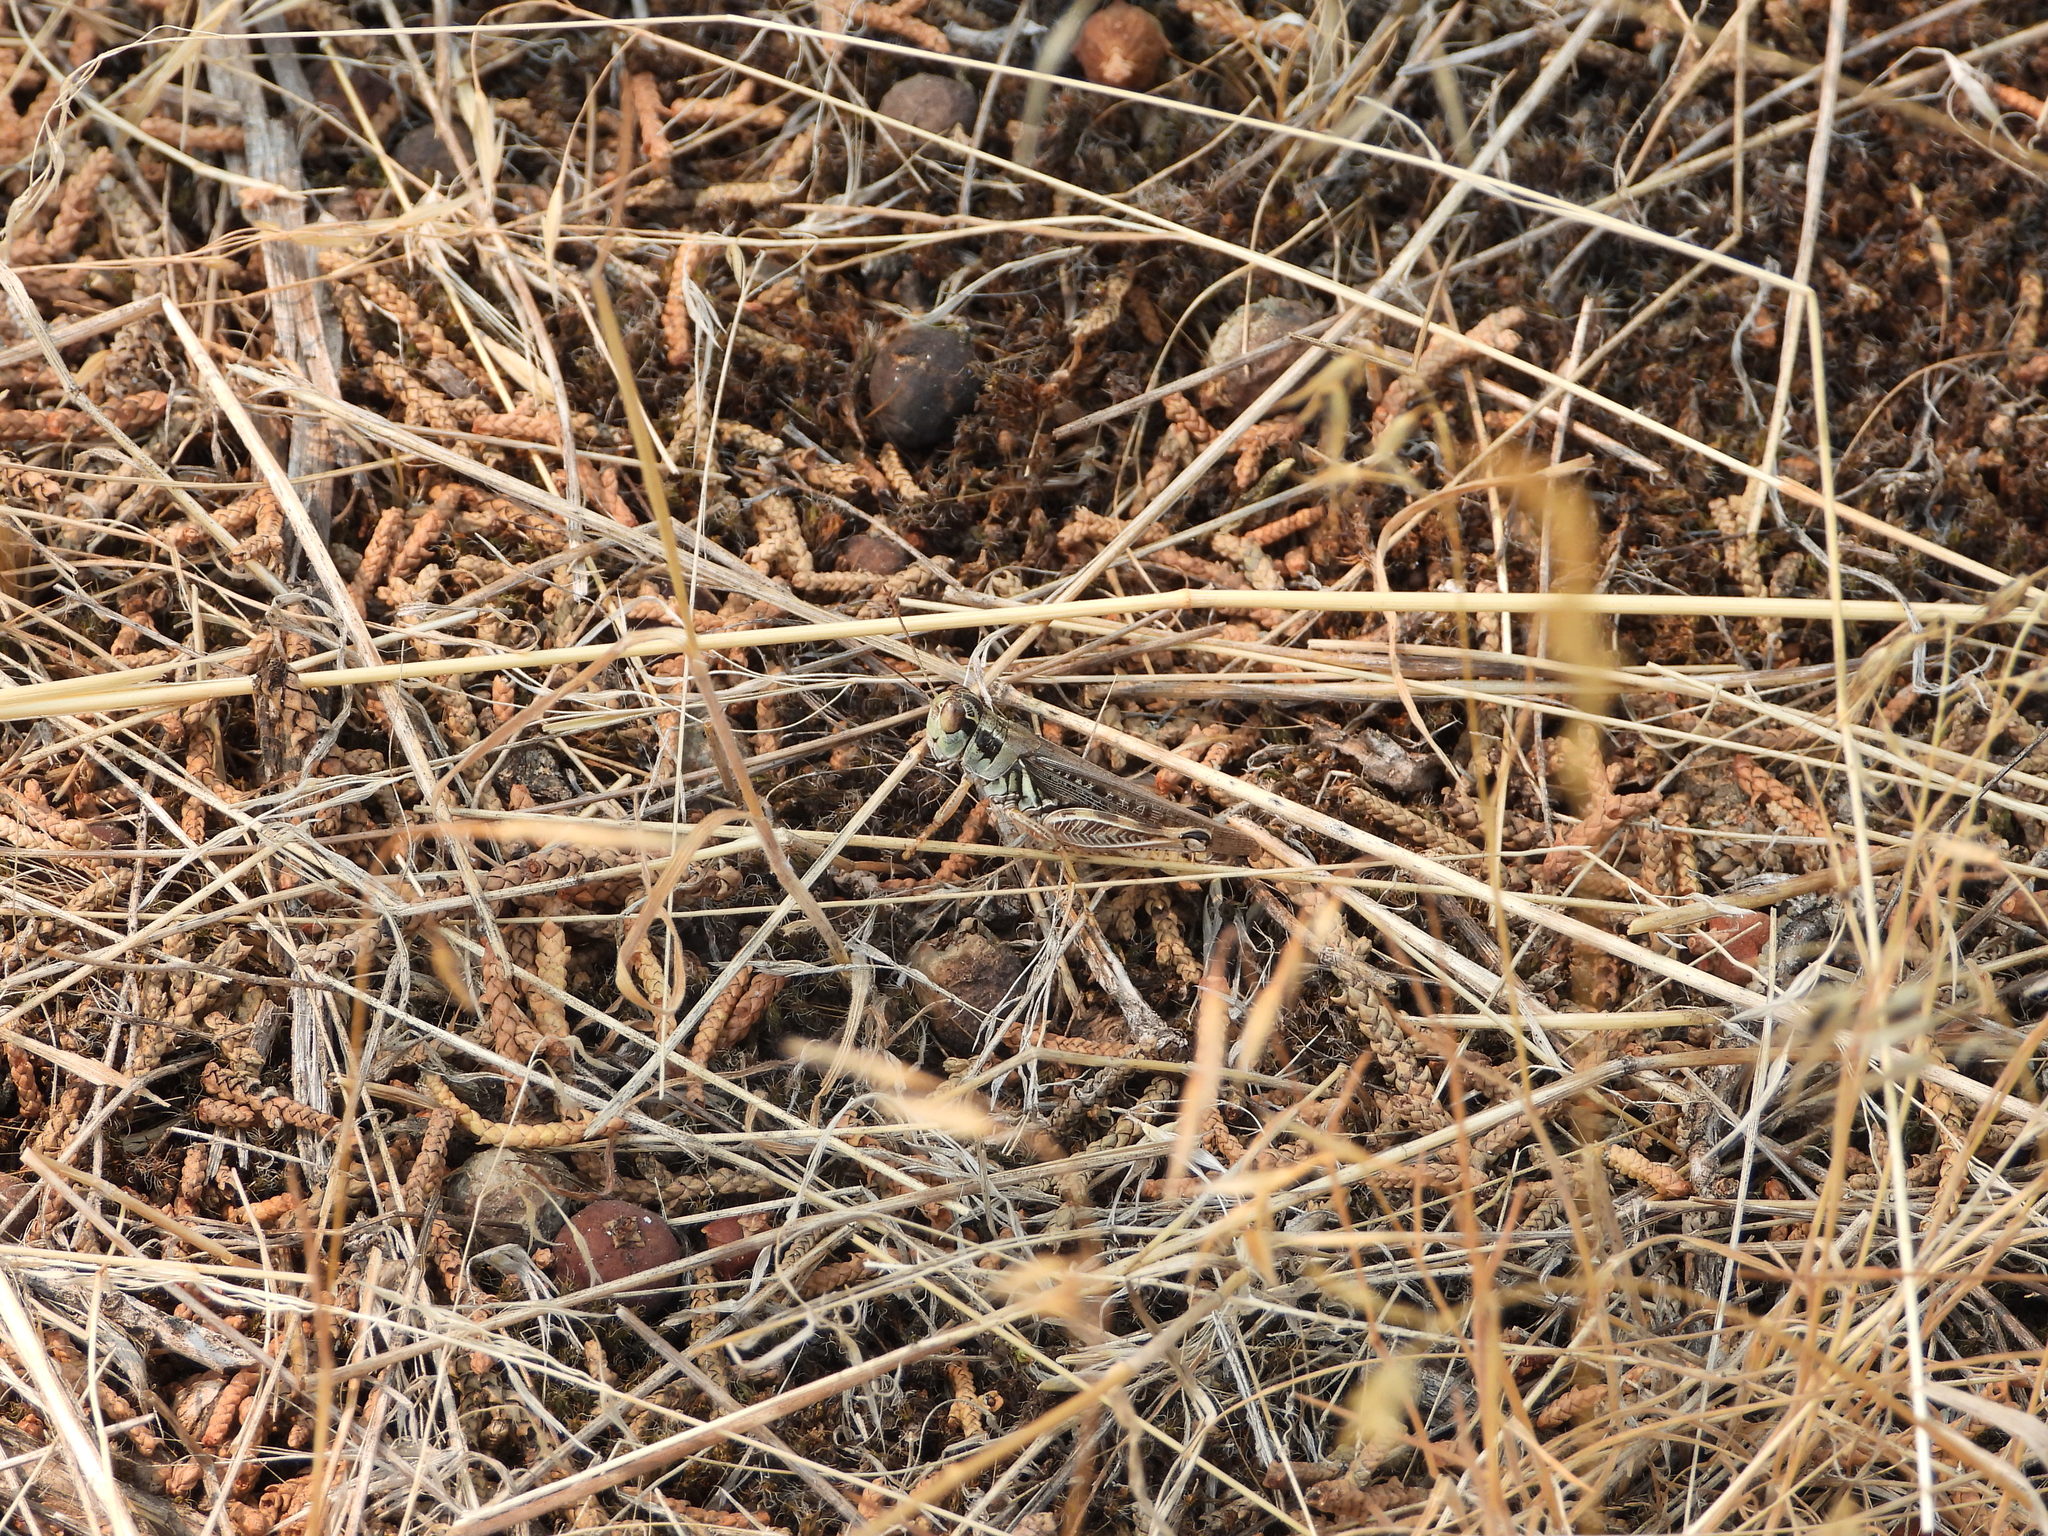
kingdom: Animalia
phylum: Arthropoda
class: Insecta
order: Orthoptera
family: Acrididae
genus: Melanoplus
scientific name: Melanoplus sanguinipes
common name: Migratory grasshopper
